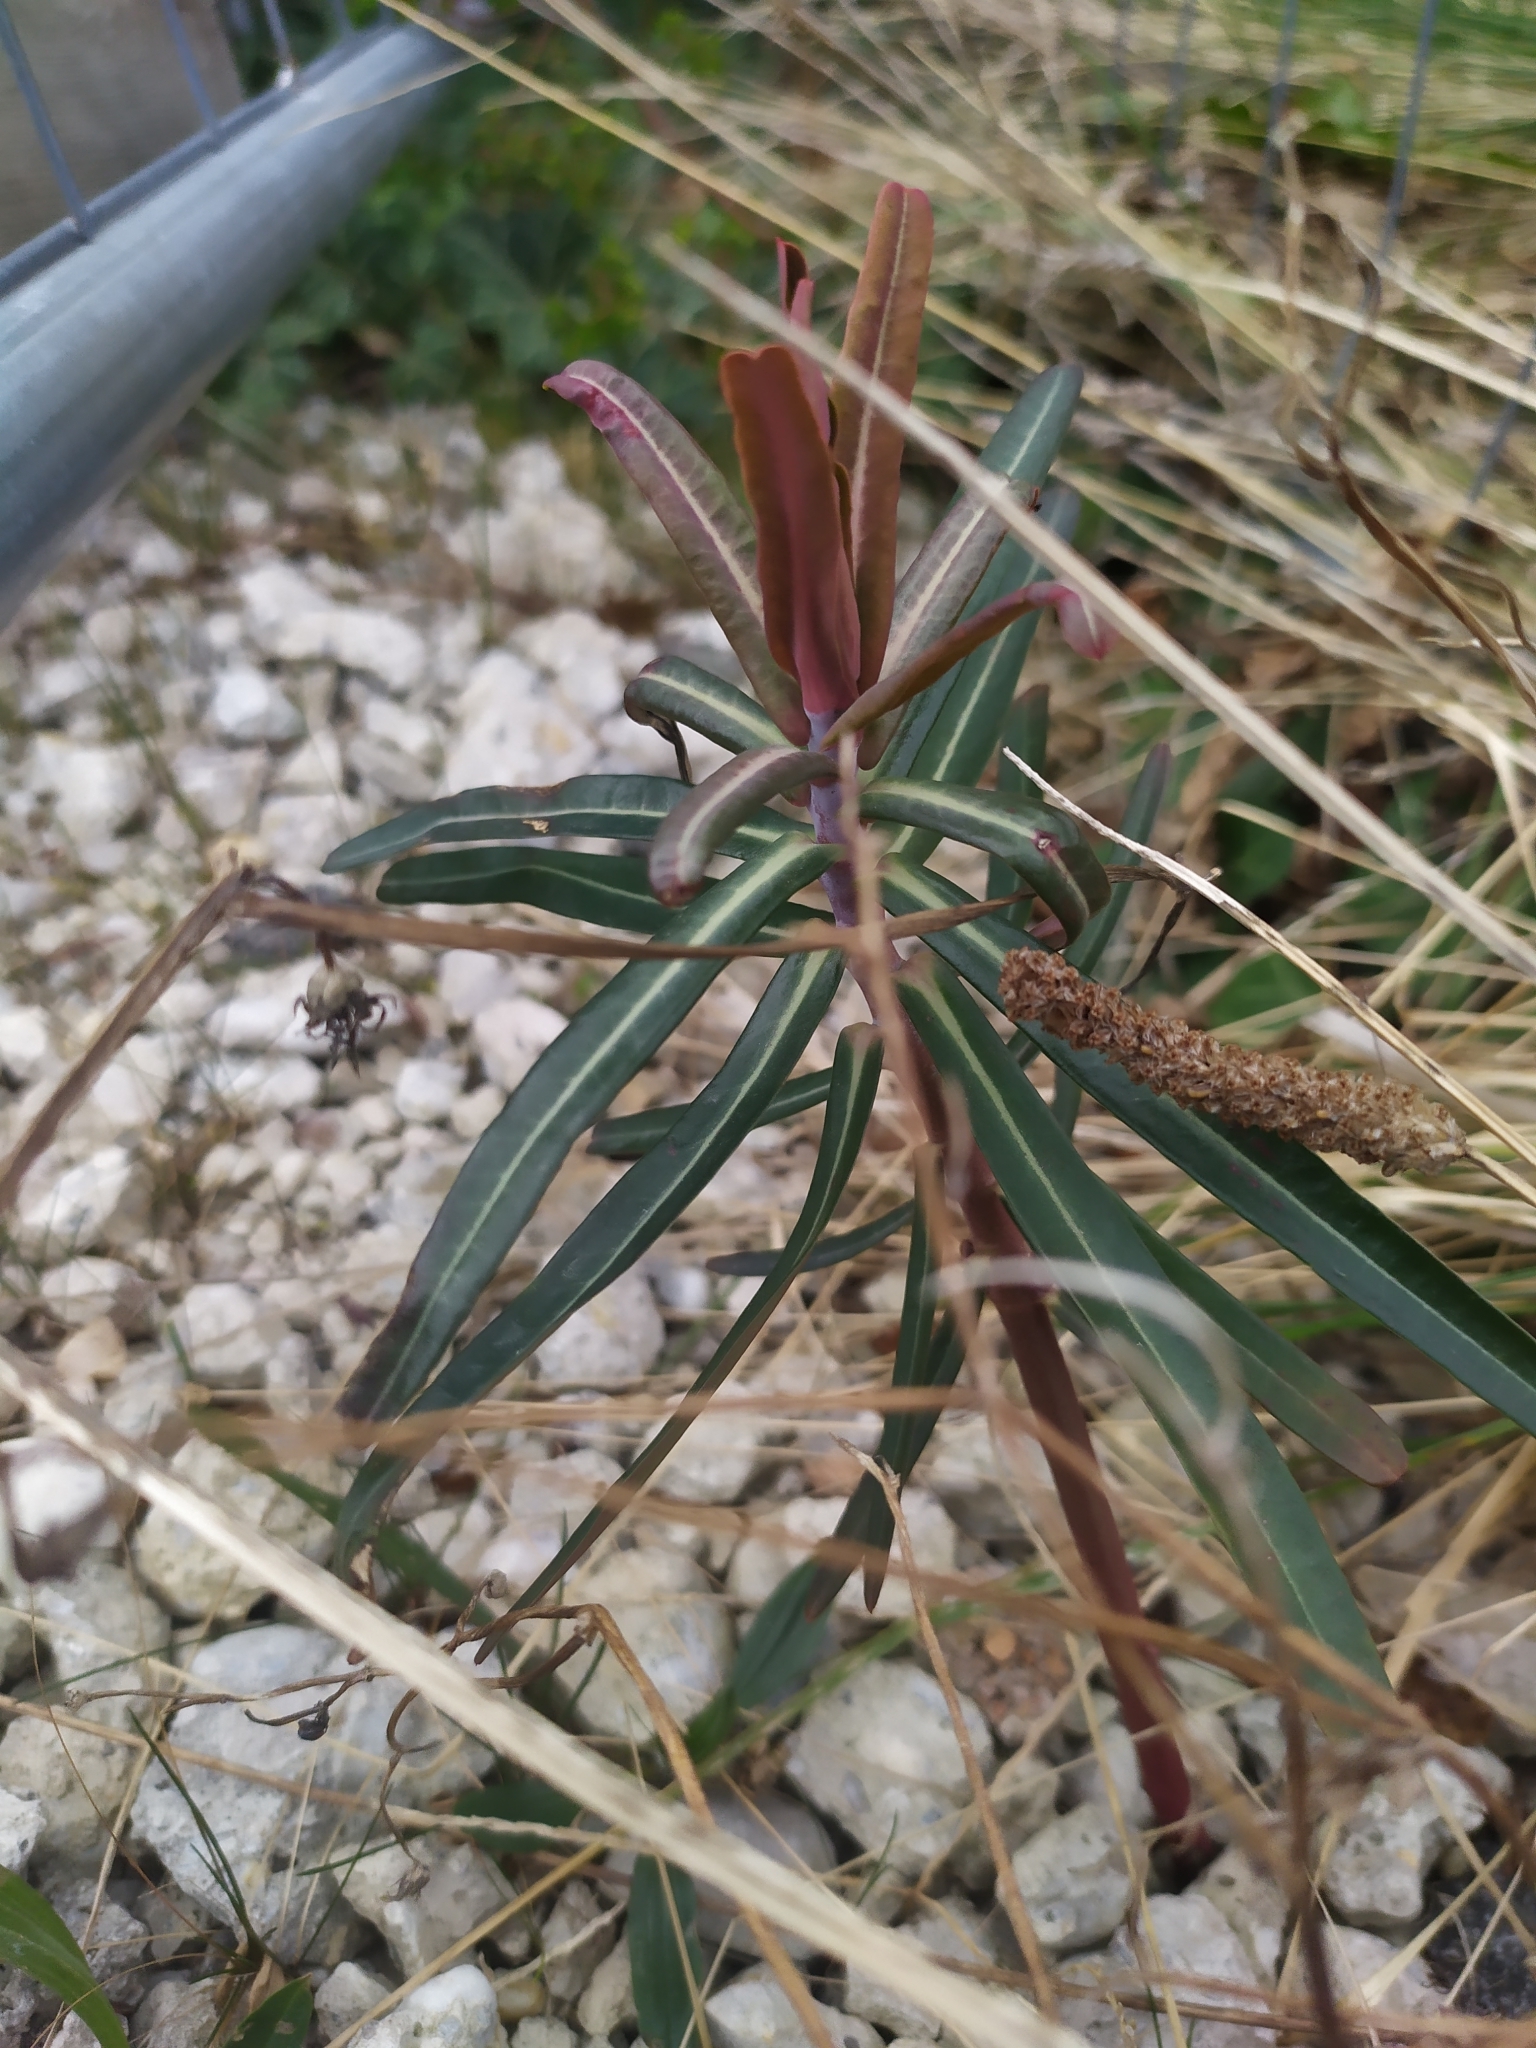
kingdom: Plantae
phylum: Tracheophyta
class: Magnoliopsida
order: Malpighiales
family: Euphorbiaceae
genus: Euphorbia
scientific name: Euphorbia lathyris
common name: Caper spurge
